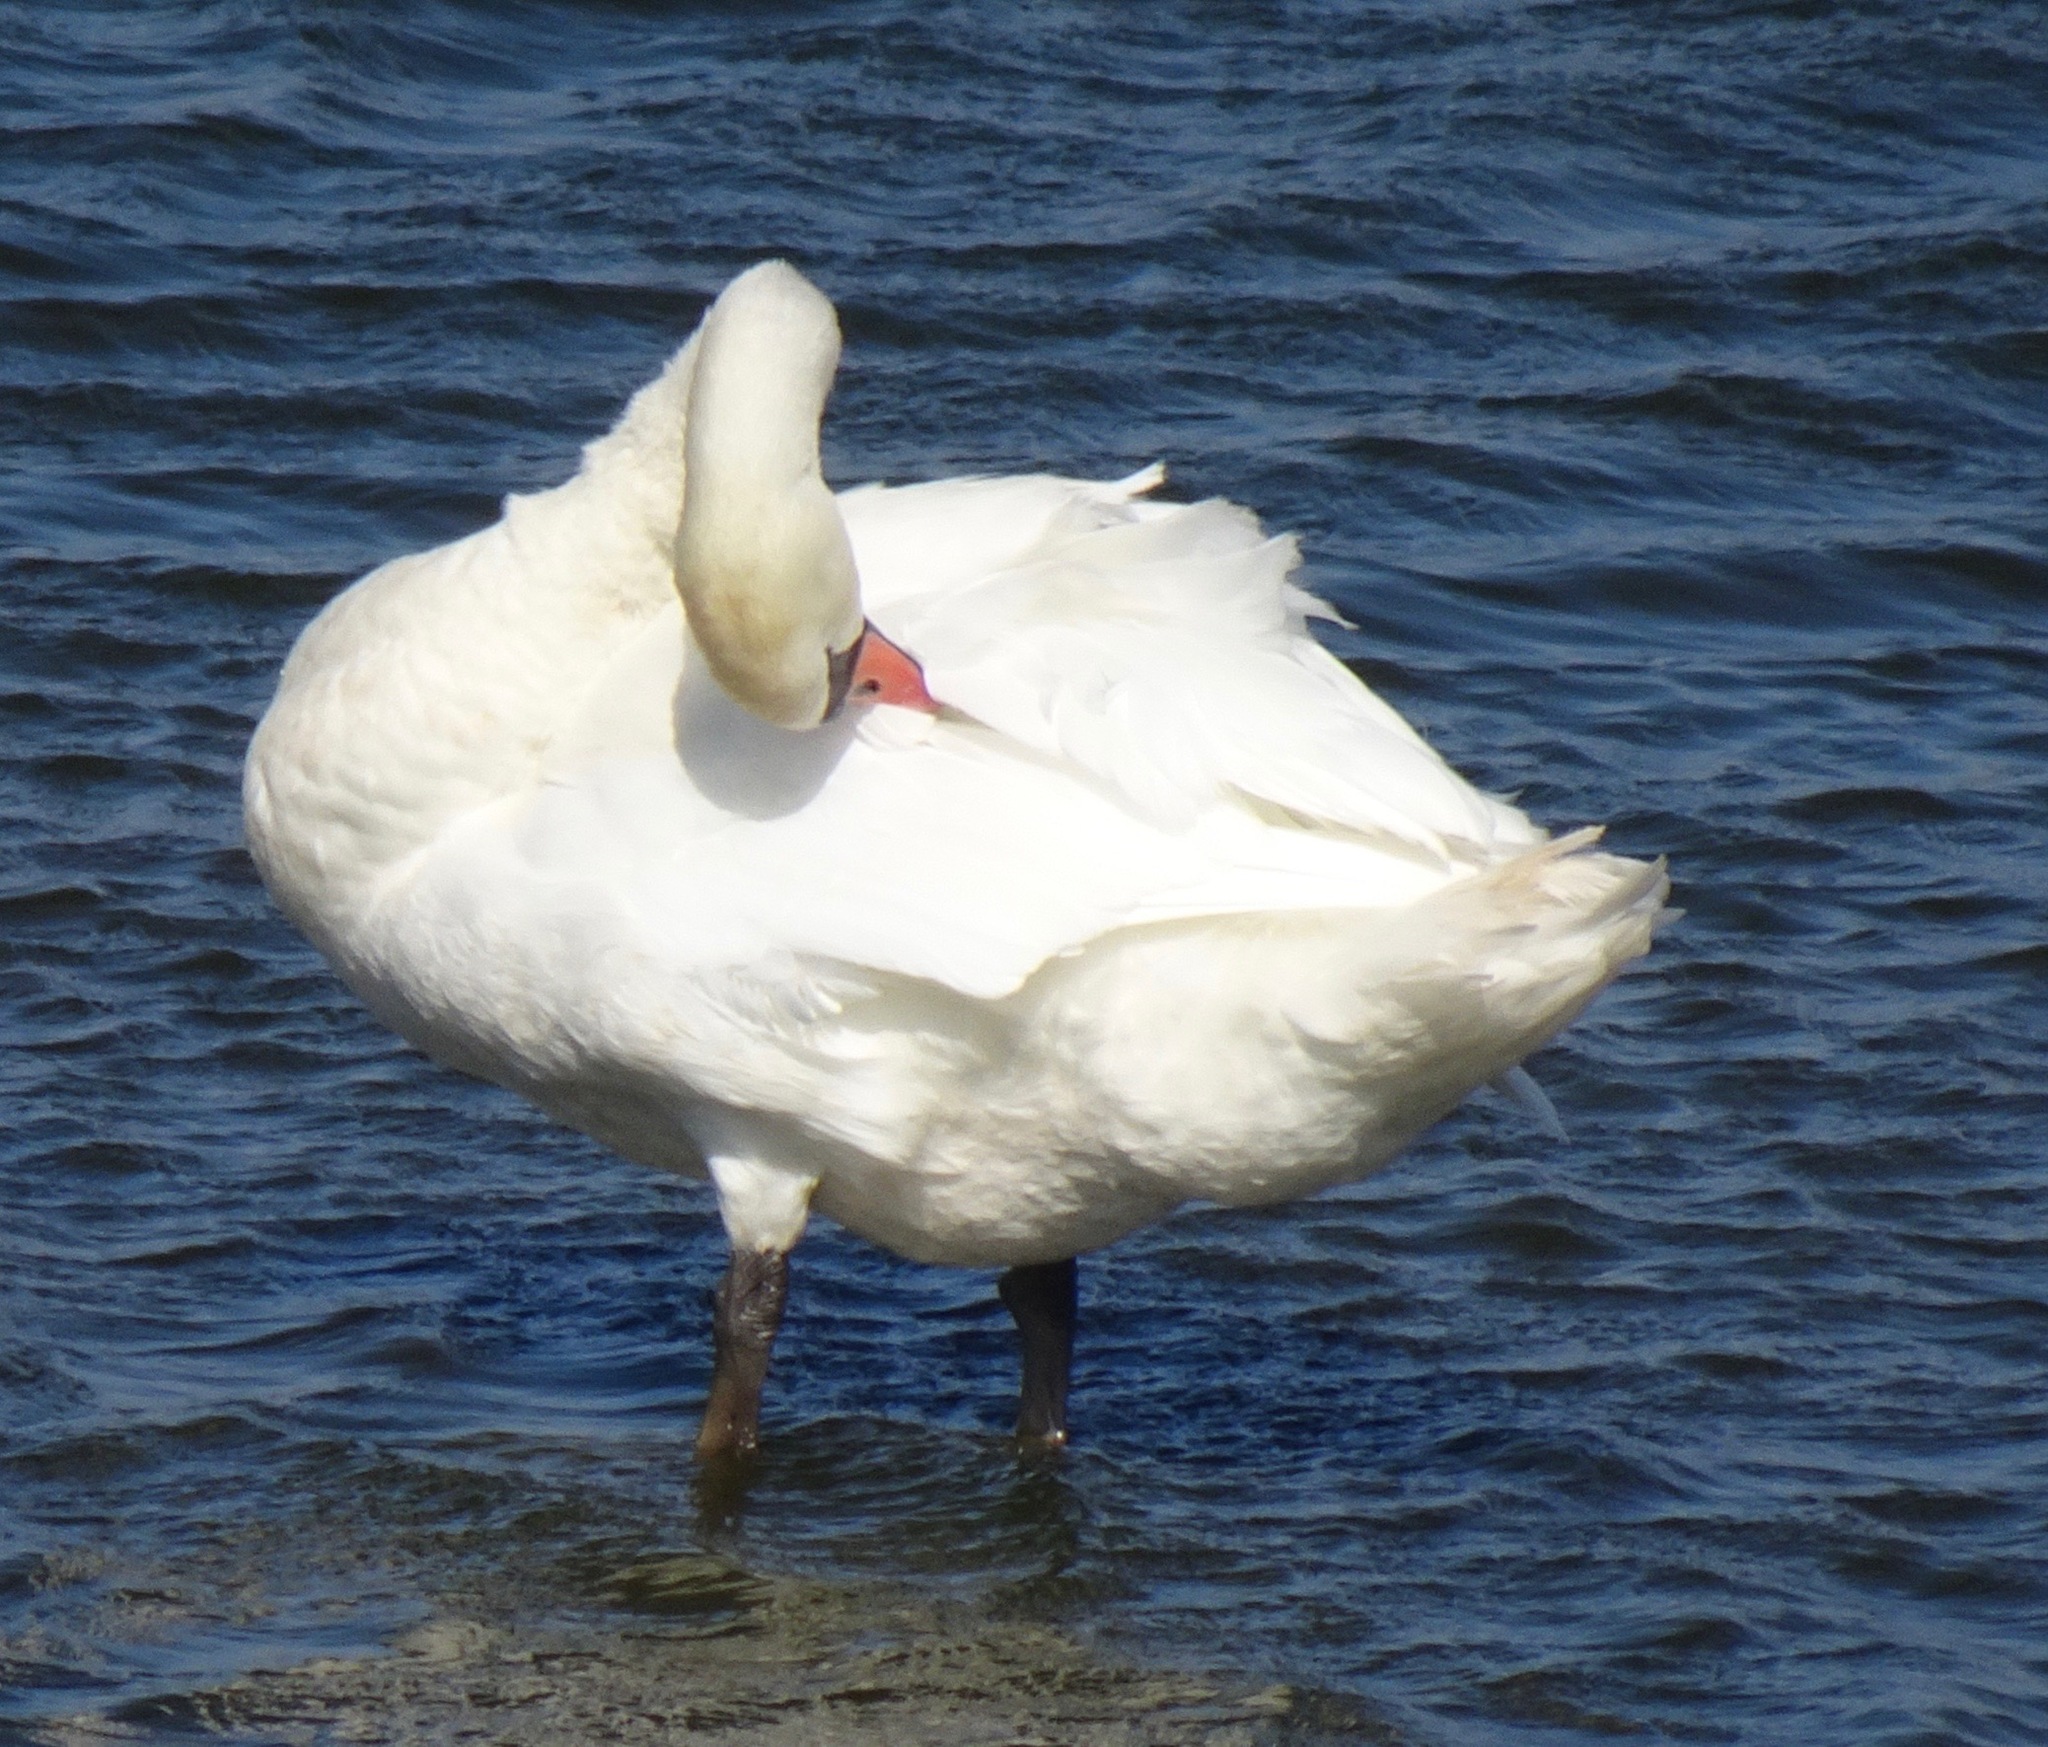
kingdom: Animalia
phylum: Chordata
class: Aves
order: Anseriformes
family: Anatidae
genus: Cygnus
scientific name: Cygnus olor
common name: Mute swan
